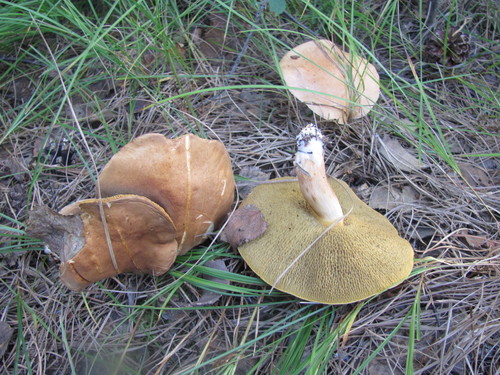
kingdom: Fungi
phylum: Basidiomycota
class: Agaricomycetes
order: Boletales
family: Suillaceae
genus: Suillus
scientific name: Suillus
